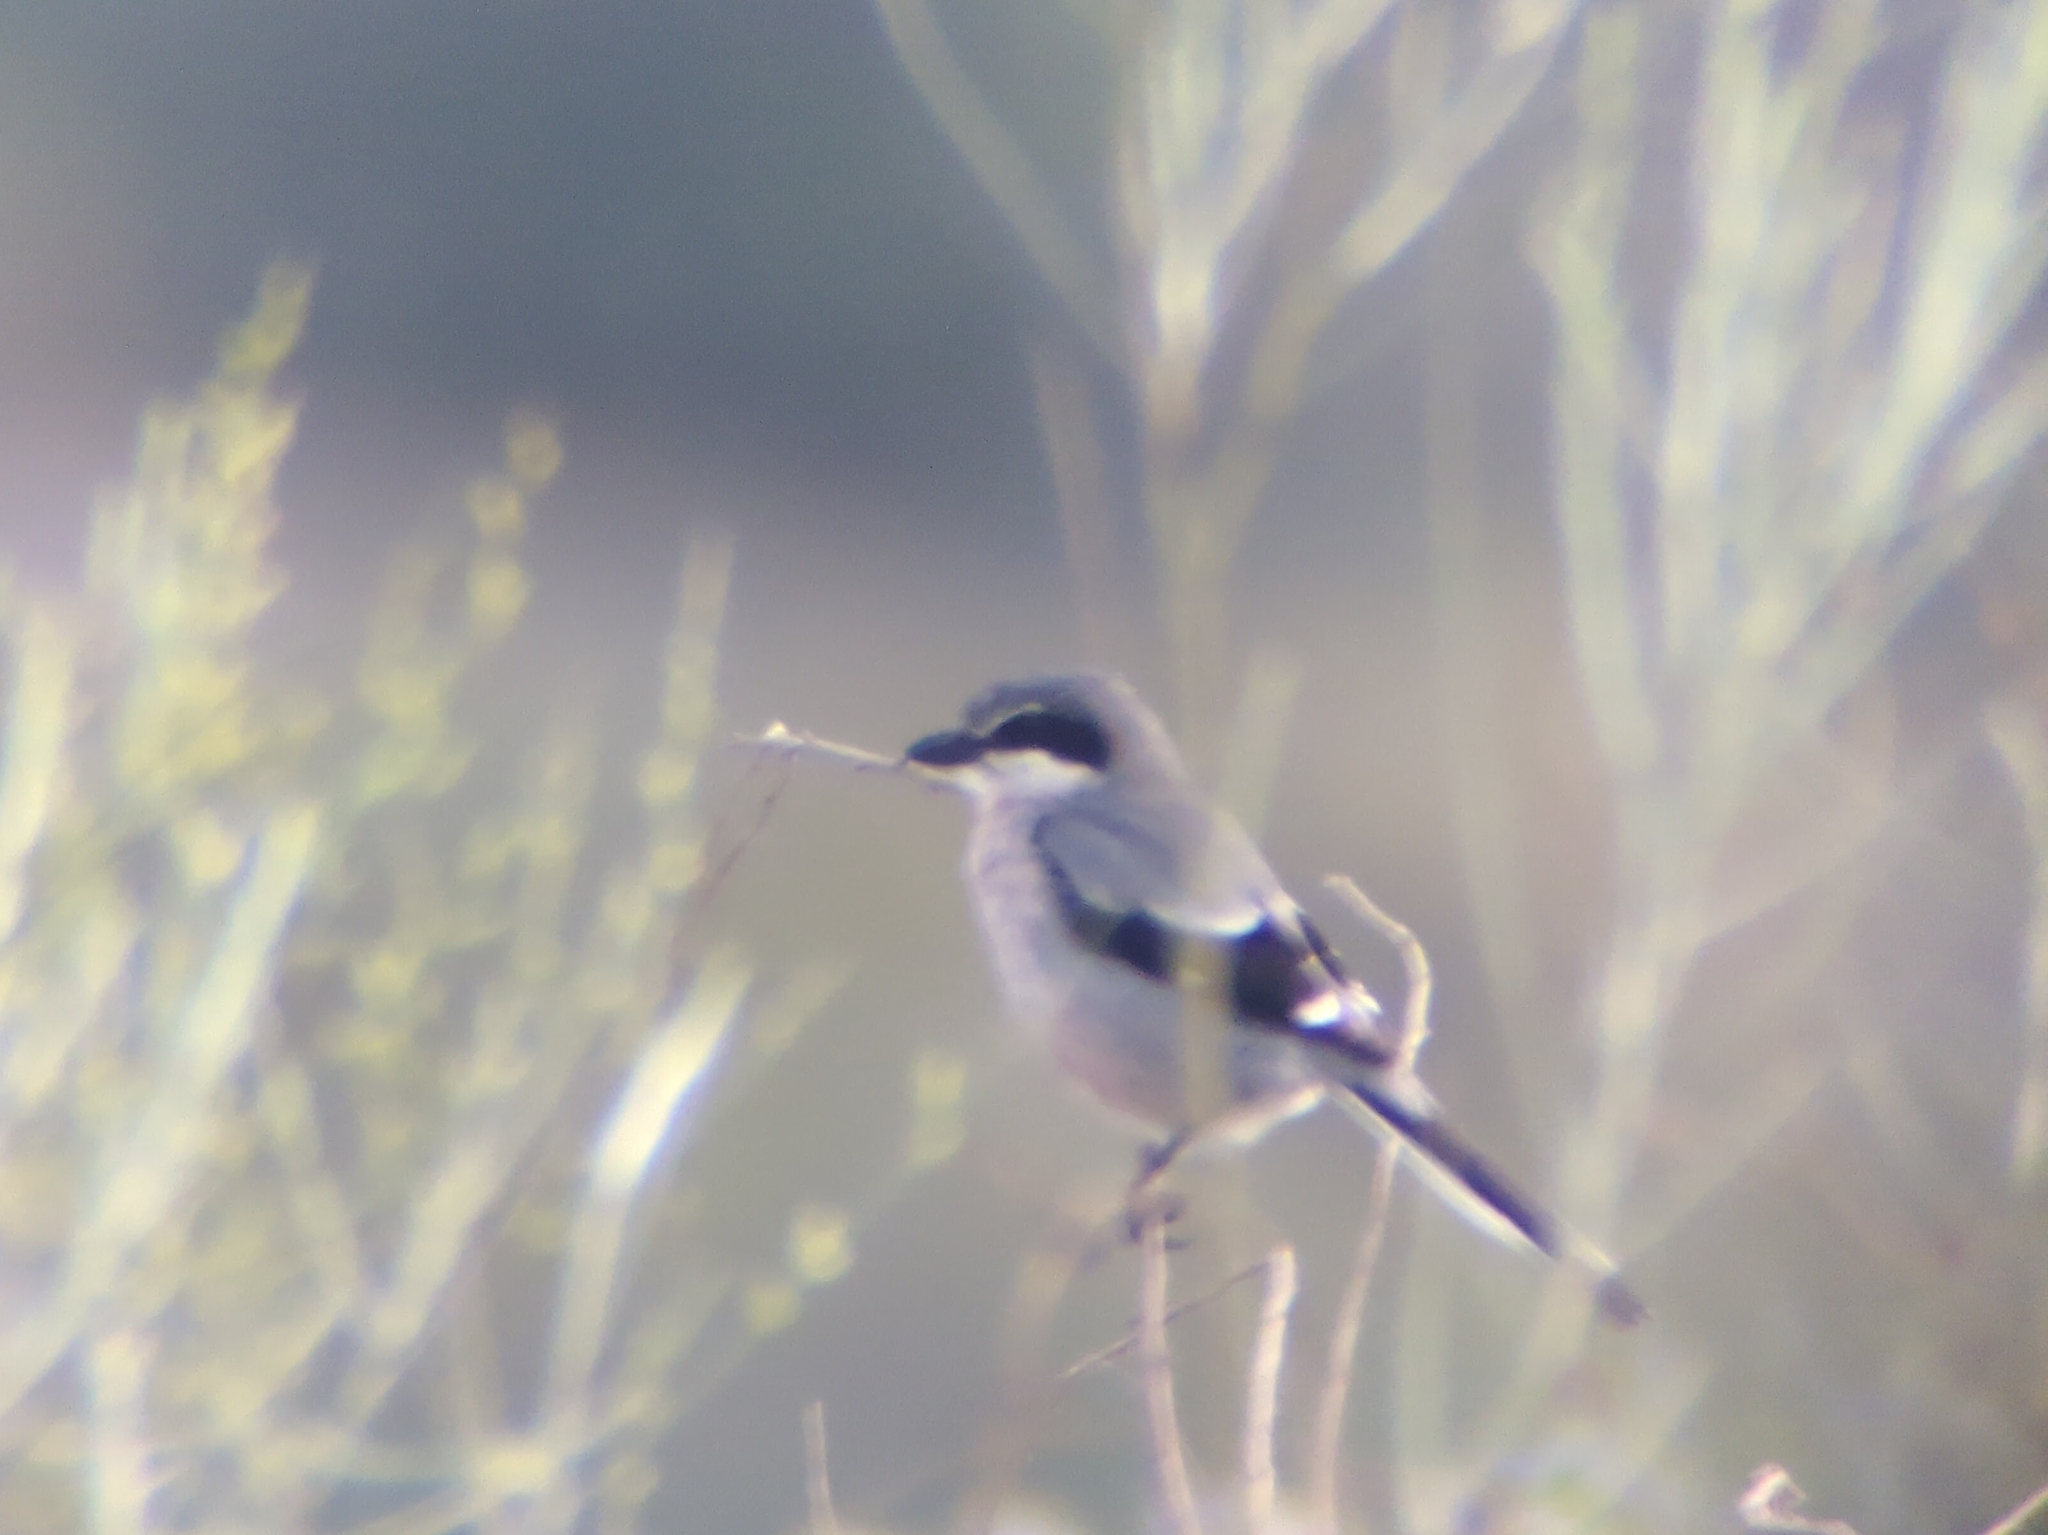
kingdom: Animalia
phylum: Chordata
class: Aves
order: Passeriformes
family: Laniidae
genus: Lanius
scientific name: Lanius meridionalis
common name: Iberian grey shrike
